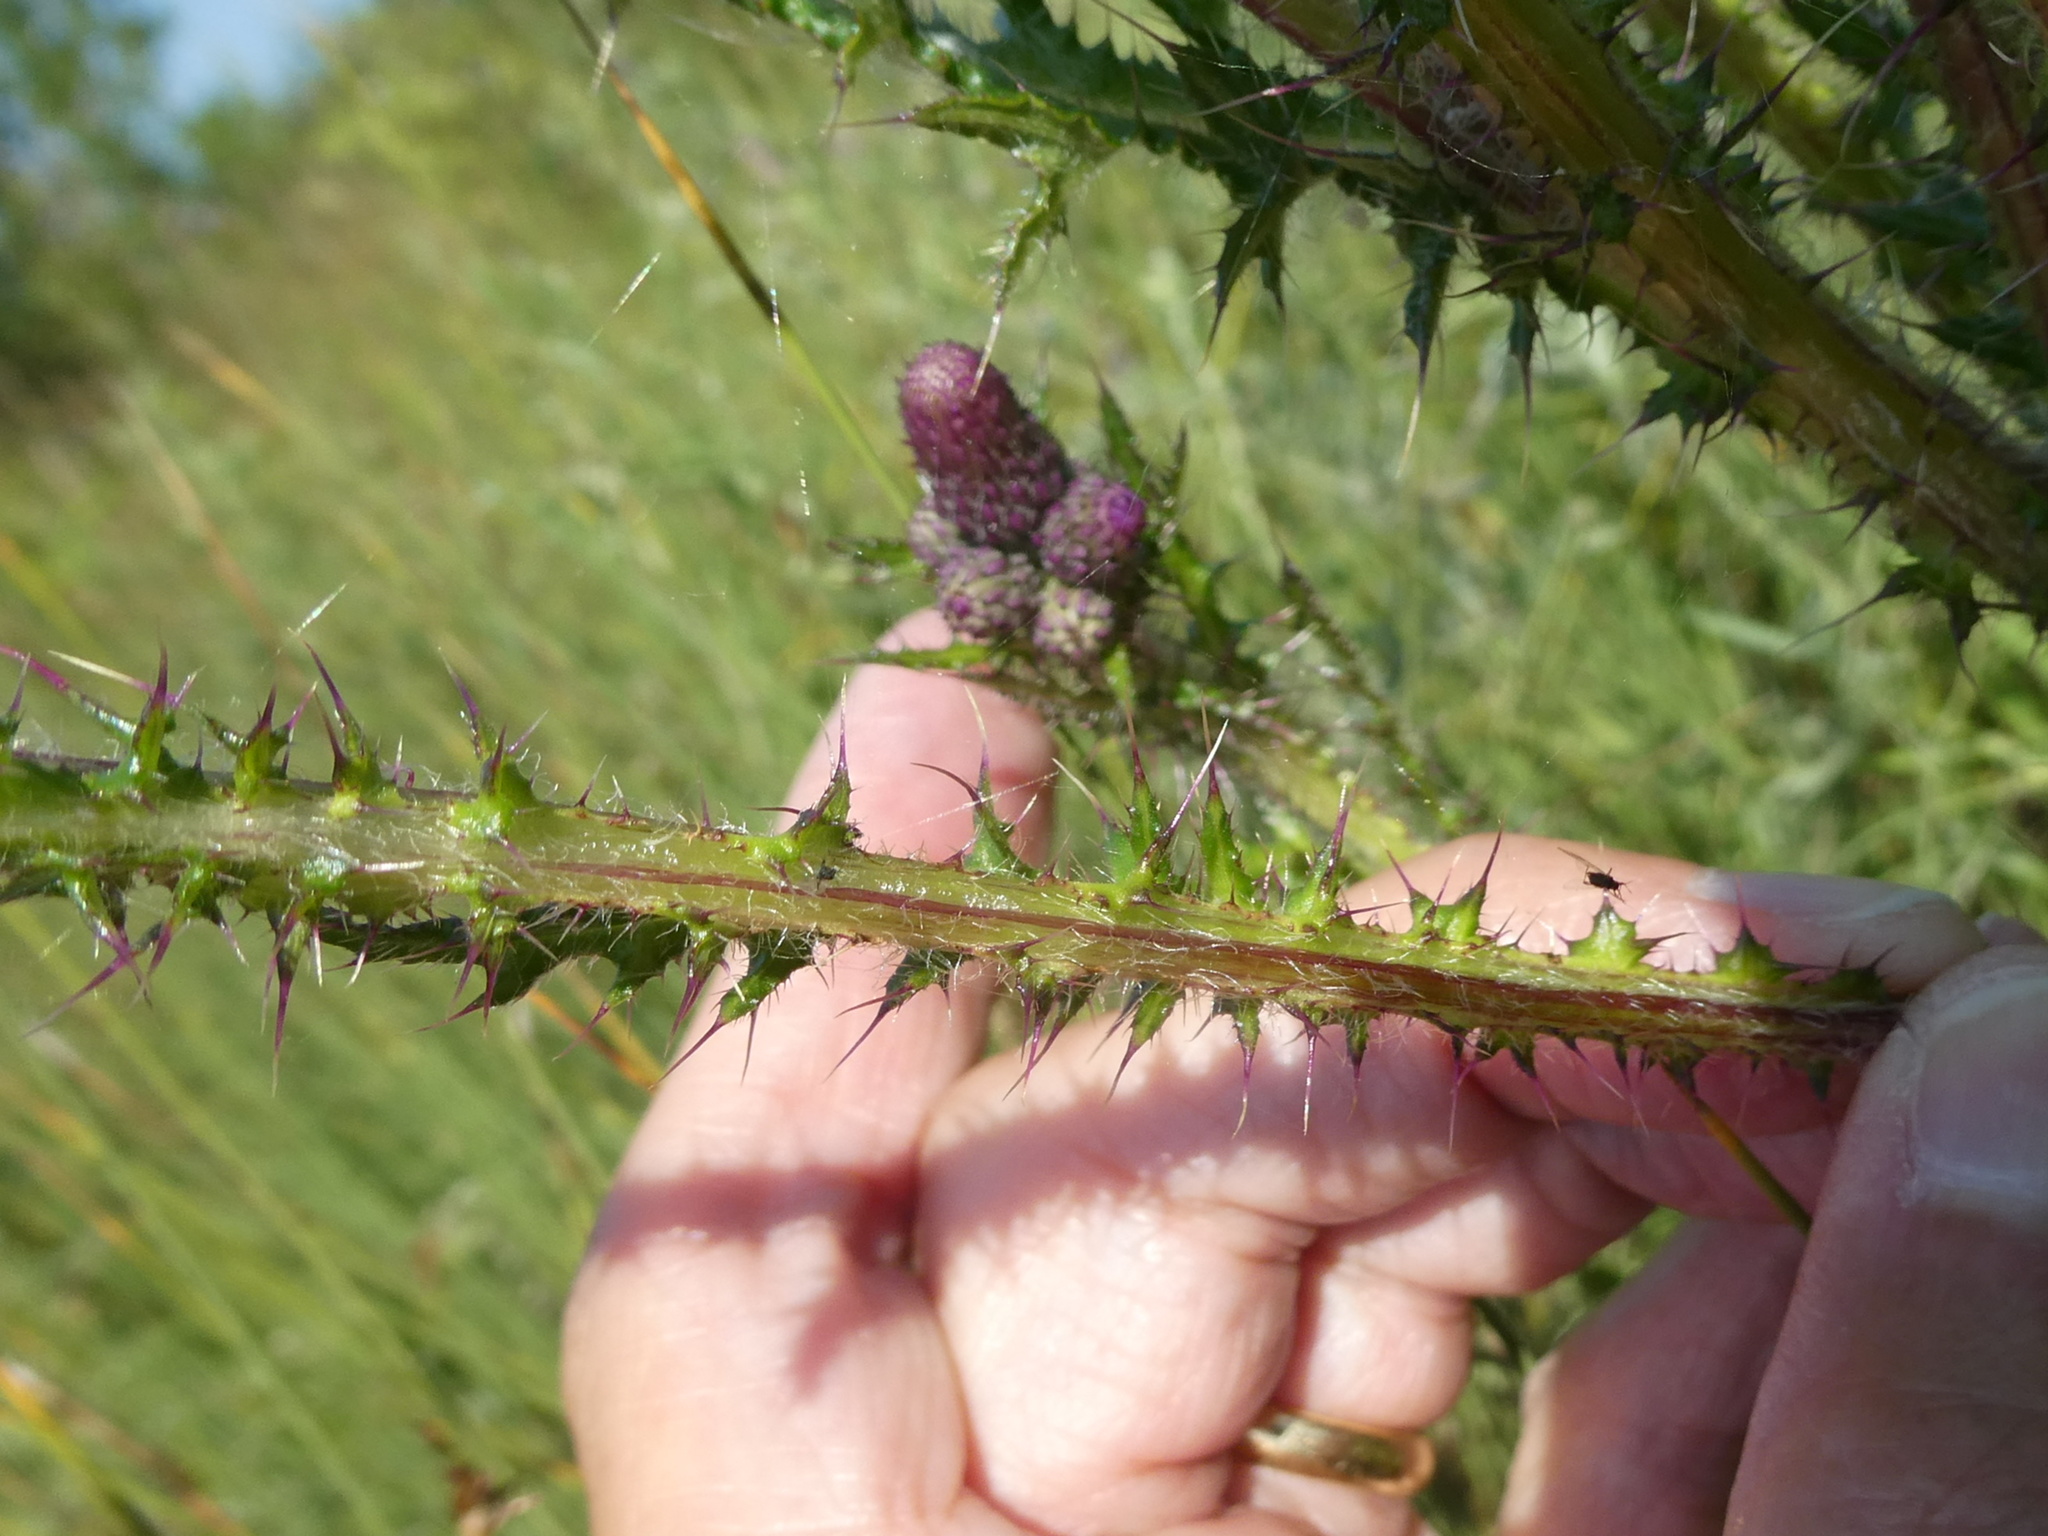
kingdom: Plantae
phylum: Tracheophyta
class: Magnoliopsida
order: Asterales
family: Asteraceae
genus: Cirsium
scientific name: Cirsium palustre
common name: Marsh thistle
